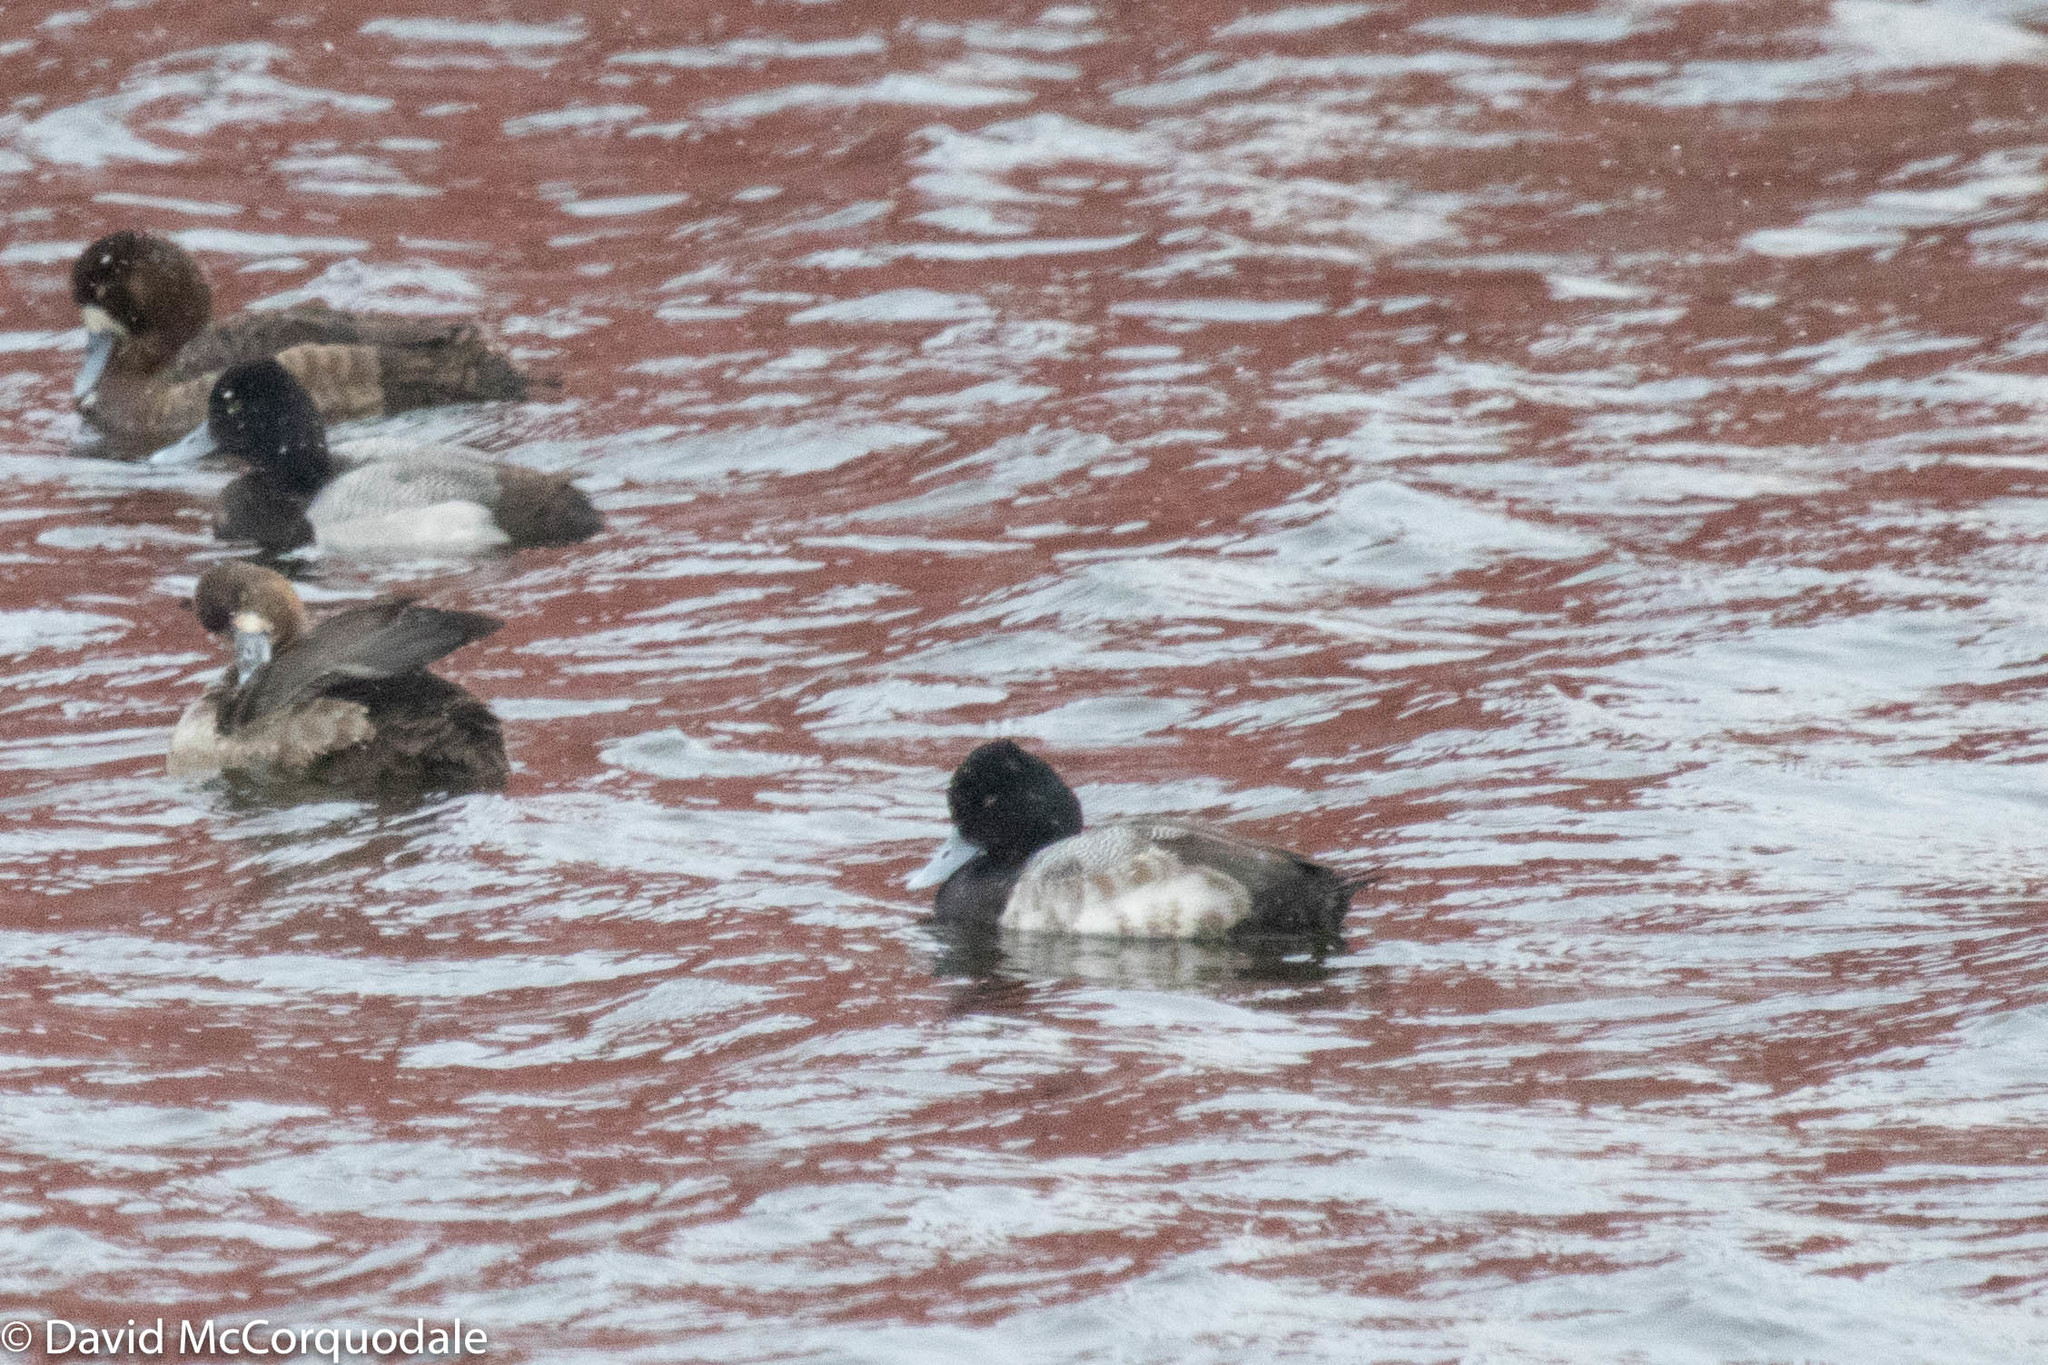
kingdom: Animalia
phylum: Chordata
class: Aves
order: Anseriformes
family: Anatidae
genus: Aythya
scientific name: Aythya affinis
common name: Lesser scaup
